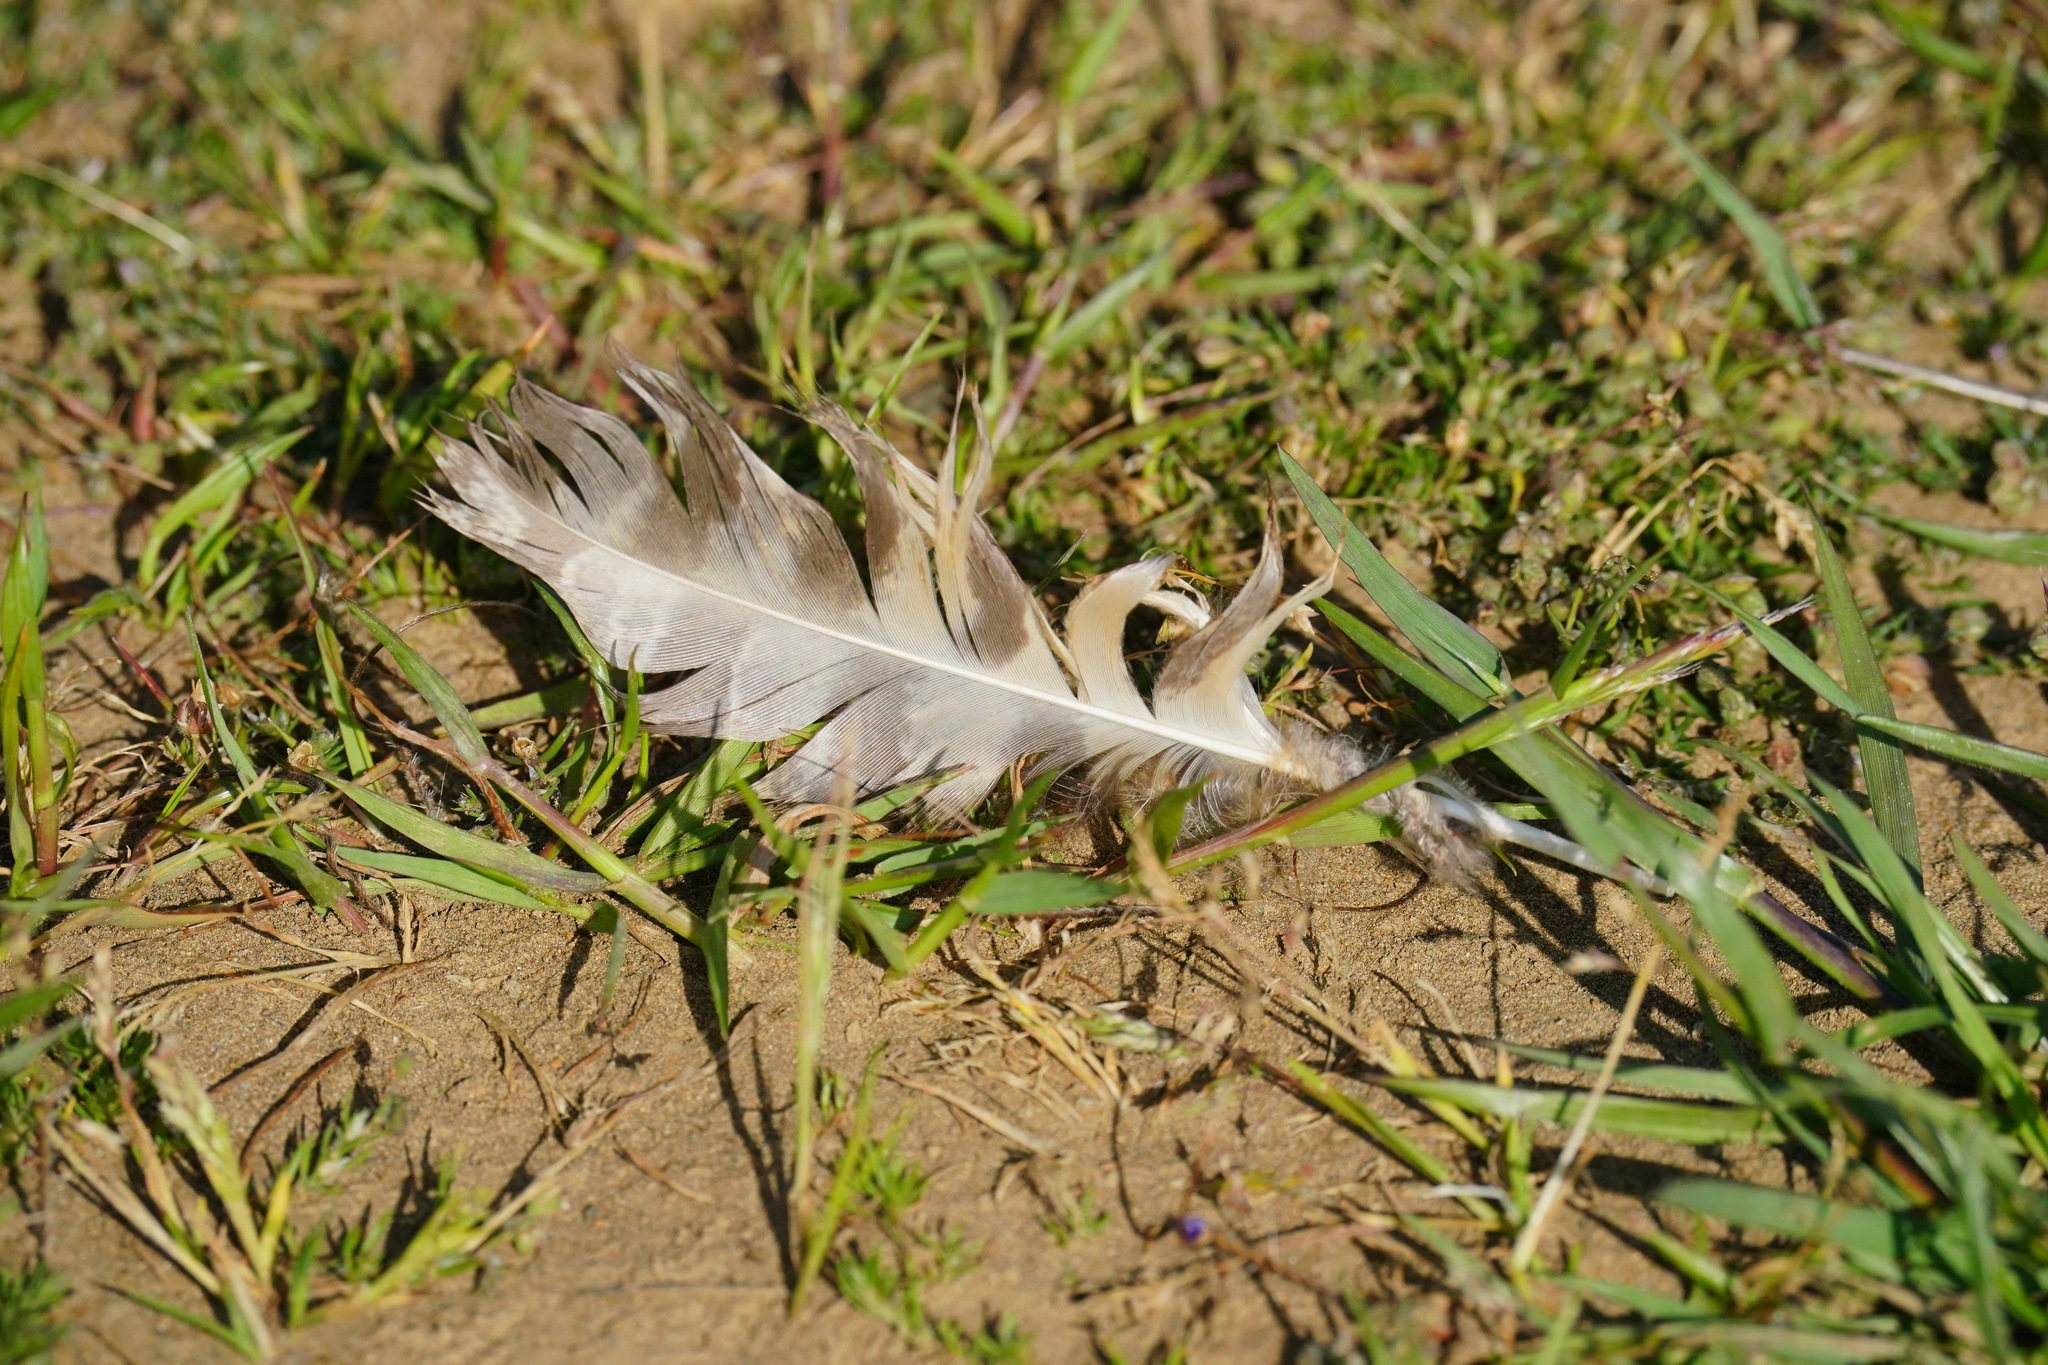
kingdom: Animalia
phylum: Chordata
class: Aves
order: Strigiformes
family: Strigidae
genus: Bubo
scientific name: Bubo virginianus
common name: Great horned owl
